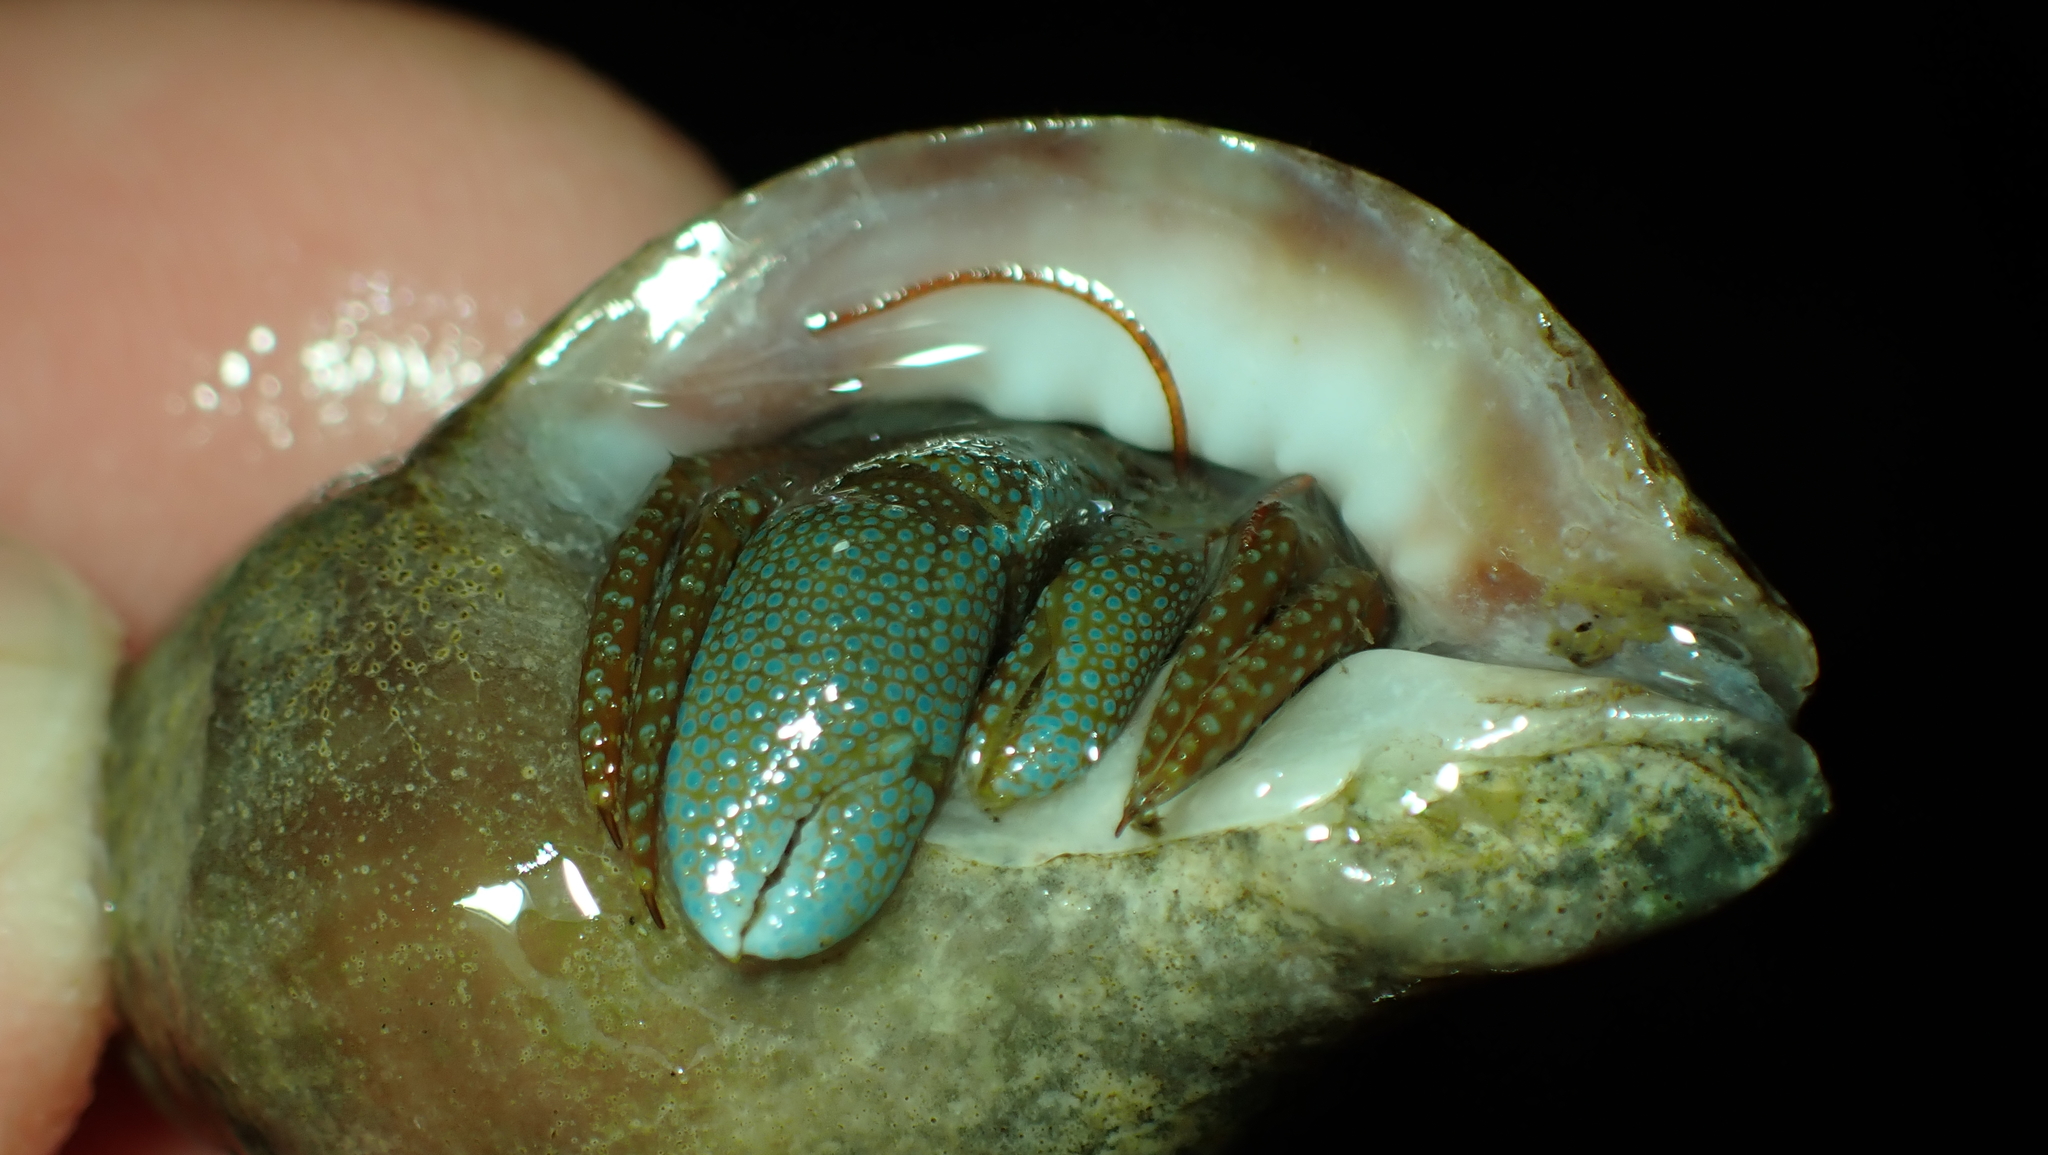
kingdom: Animalia
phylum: Arthropoda
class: Malacostraca
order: Decapoda
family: Paguridae
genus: Pagurus
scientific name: Pagurus granosimanus
